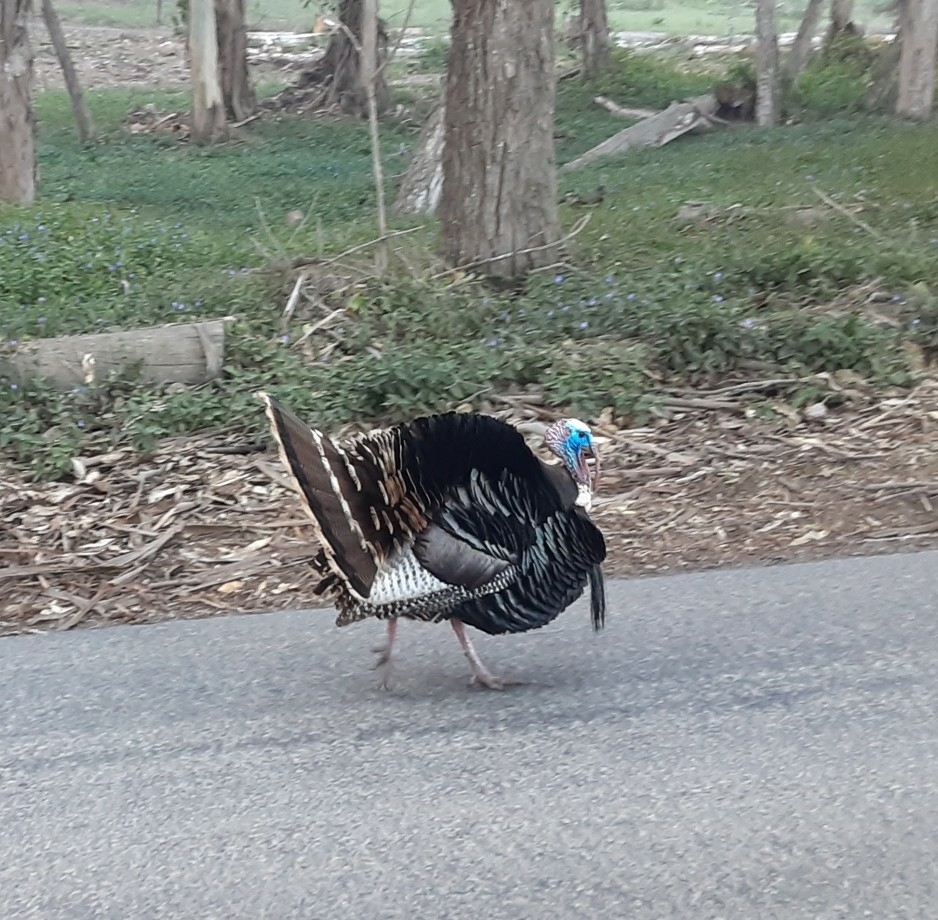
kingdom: Animalia
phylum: Chordata
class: Aves
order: Galliformes
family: Phasianidae
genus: Meleagris
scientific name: Meleagris gallopavo
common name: Wild turkey
